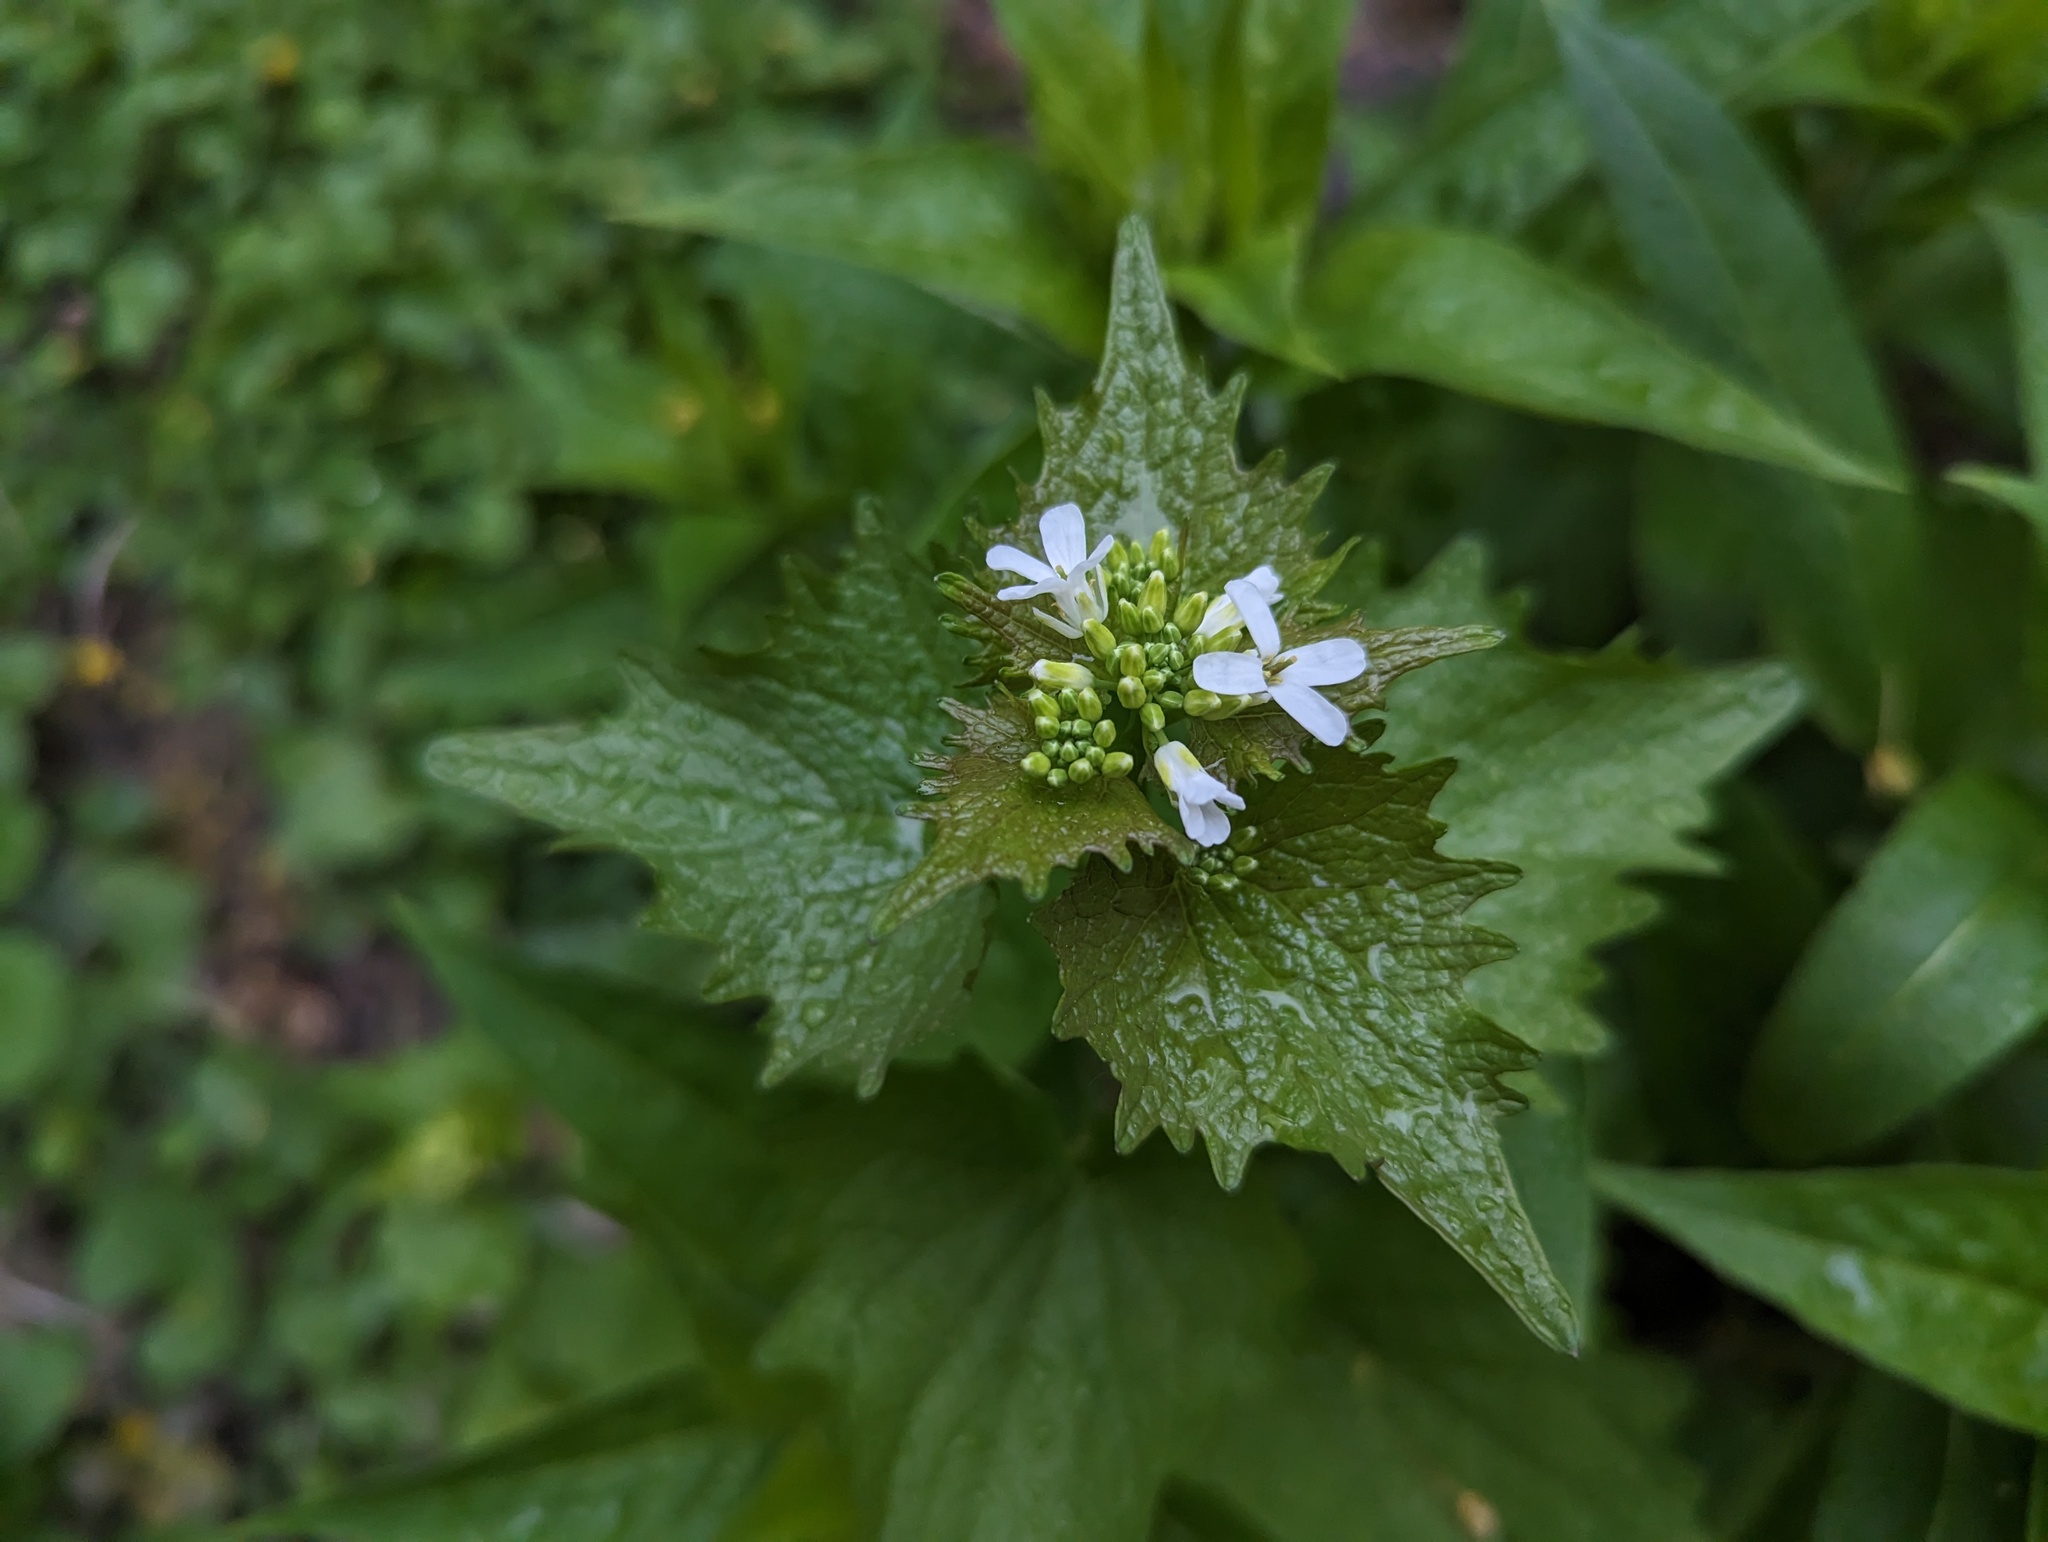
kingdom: Plantae
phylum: Tracheophyta
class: Magnoliopsida
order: Brassicales
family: Brassicaceae
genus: Alliaria
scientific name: Alliaria petiolata
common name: Garlic mustard
